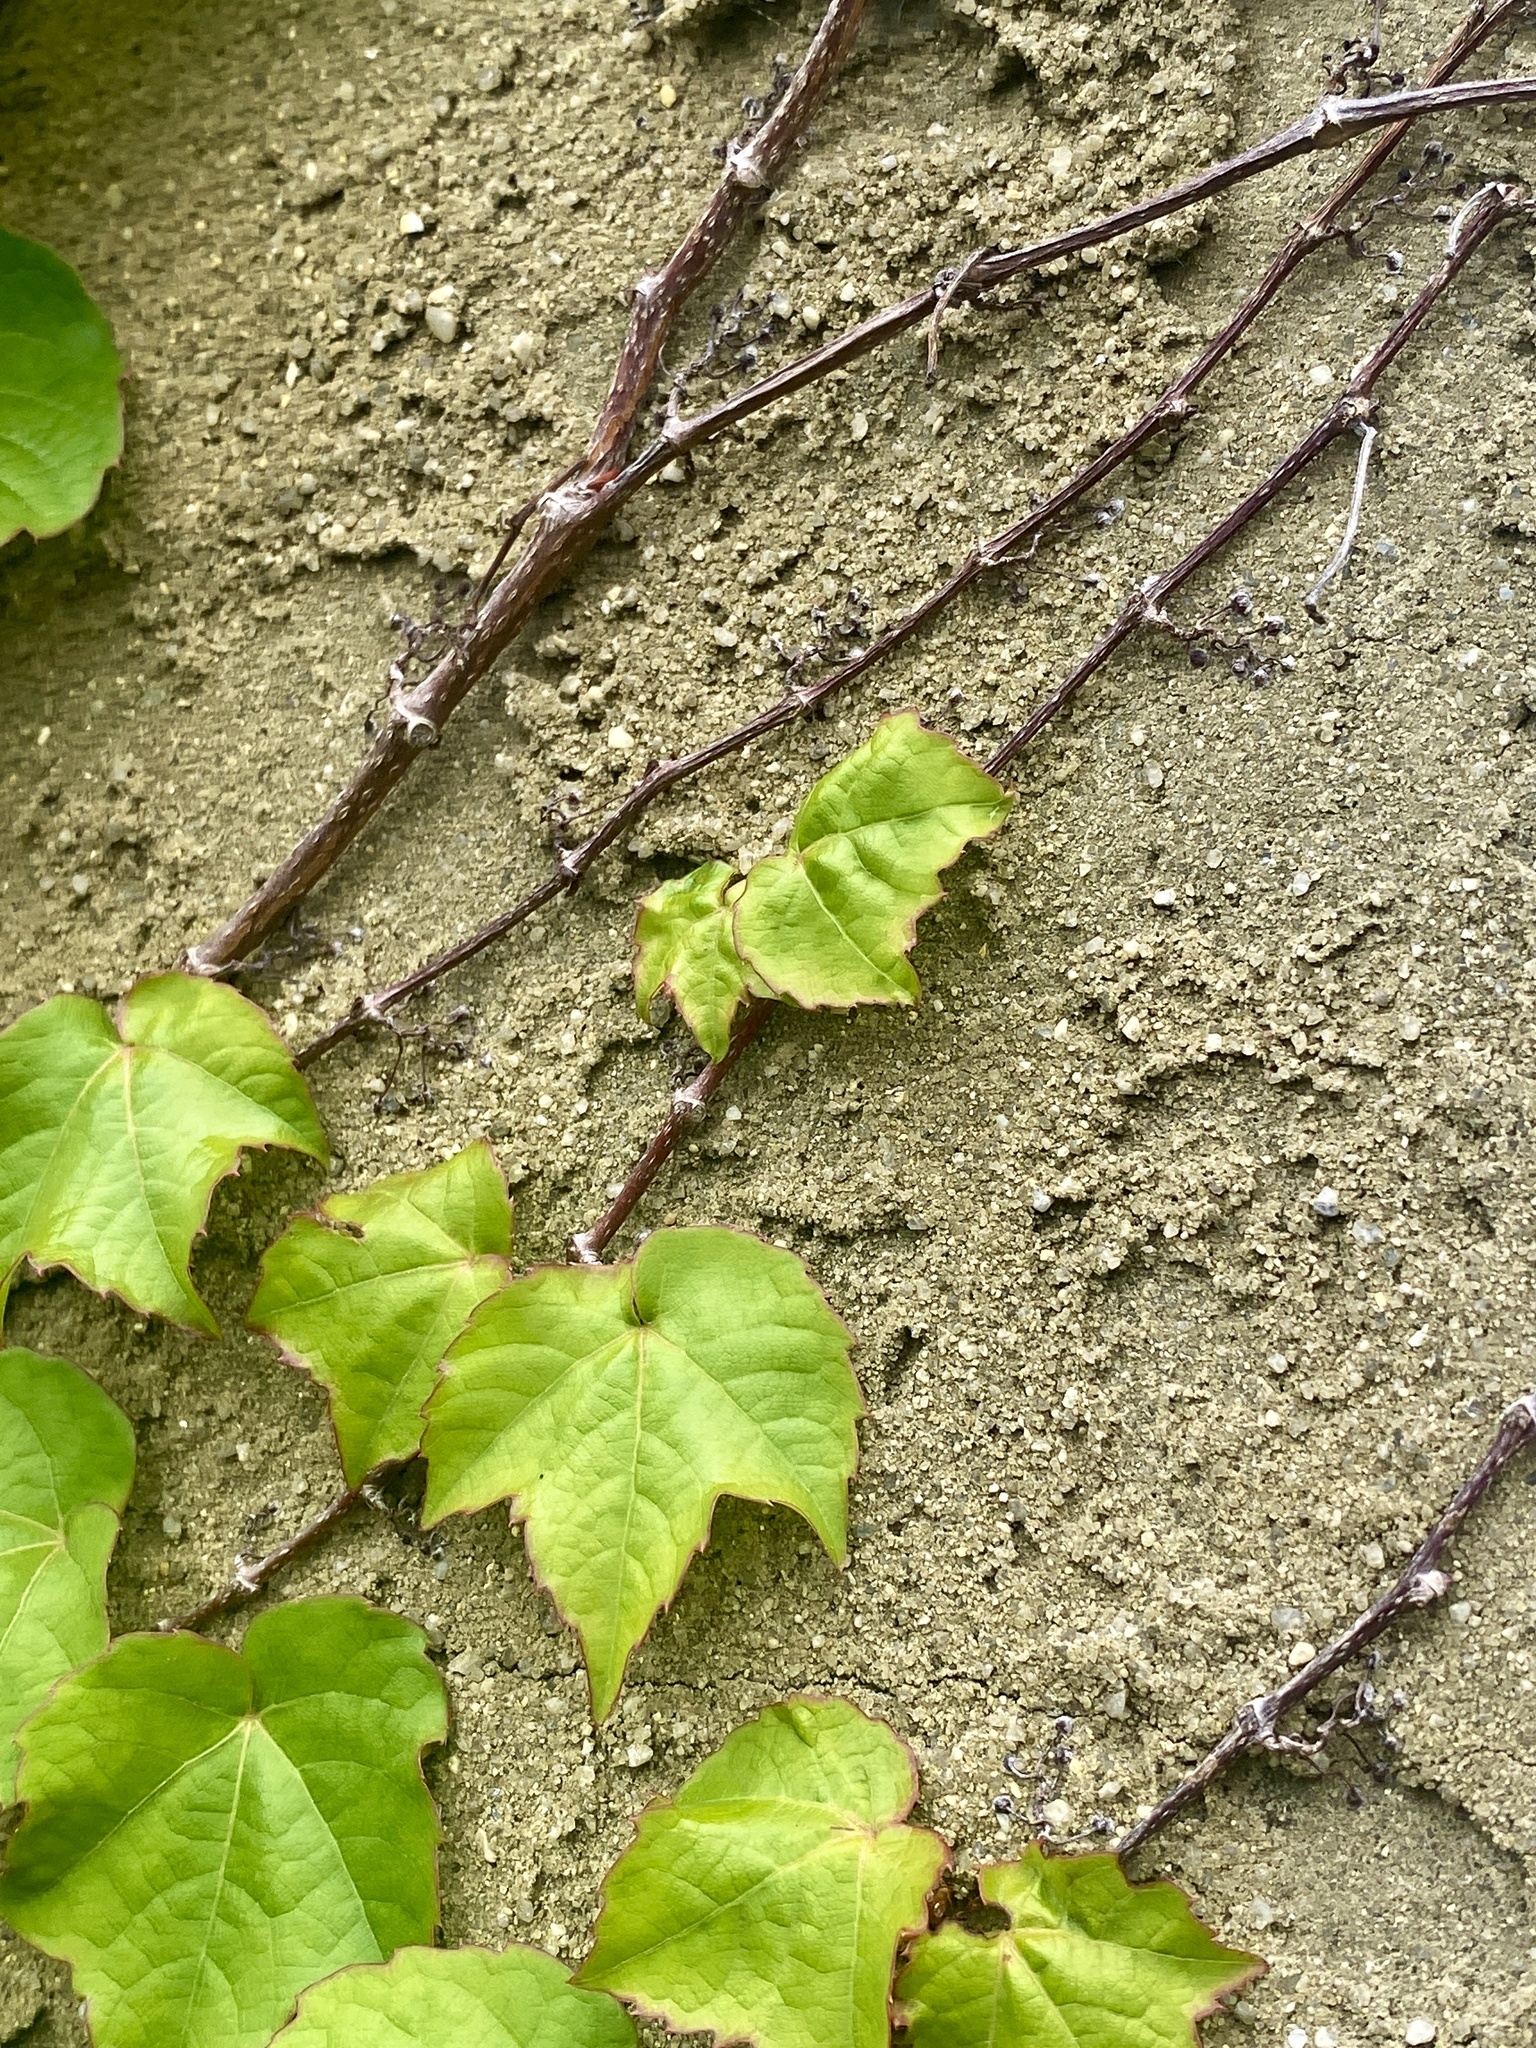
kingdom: Plantae
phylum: Tracheophyta
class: Magnoliopsida
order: Vitales
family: Vitaceae
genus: Parthenocissus
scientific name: Parthenocissus tricuspidata
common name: Boston ivy
